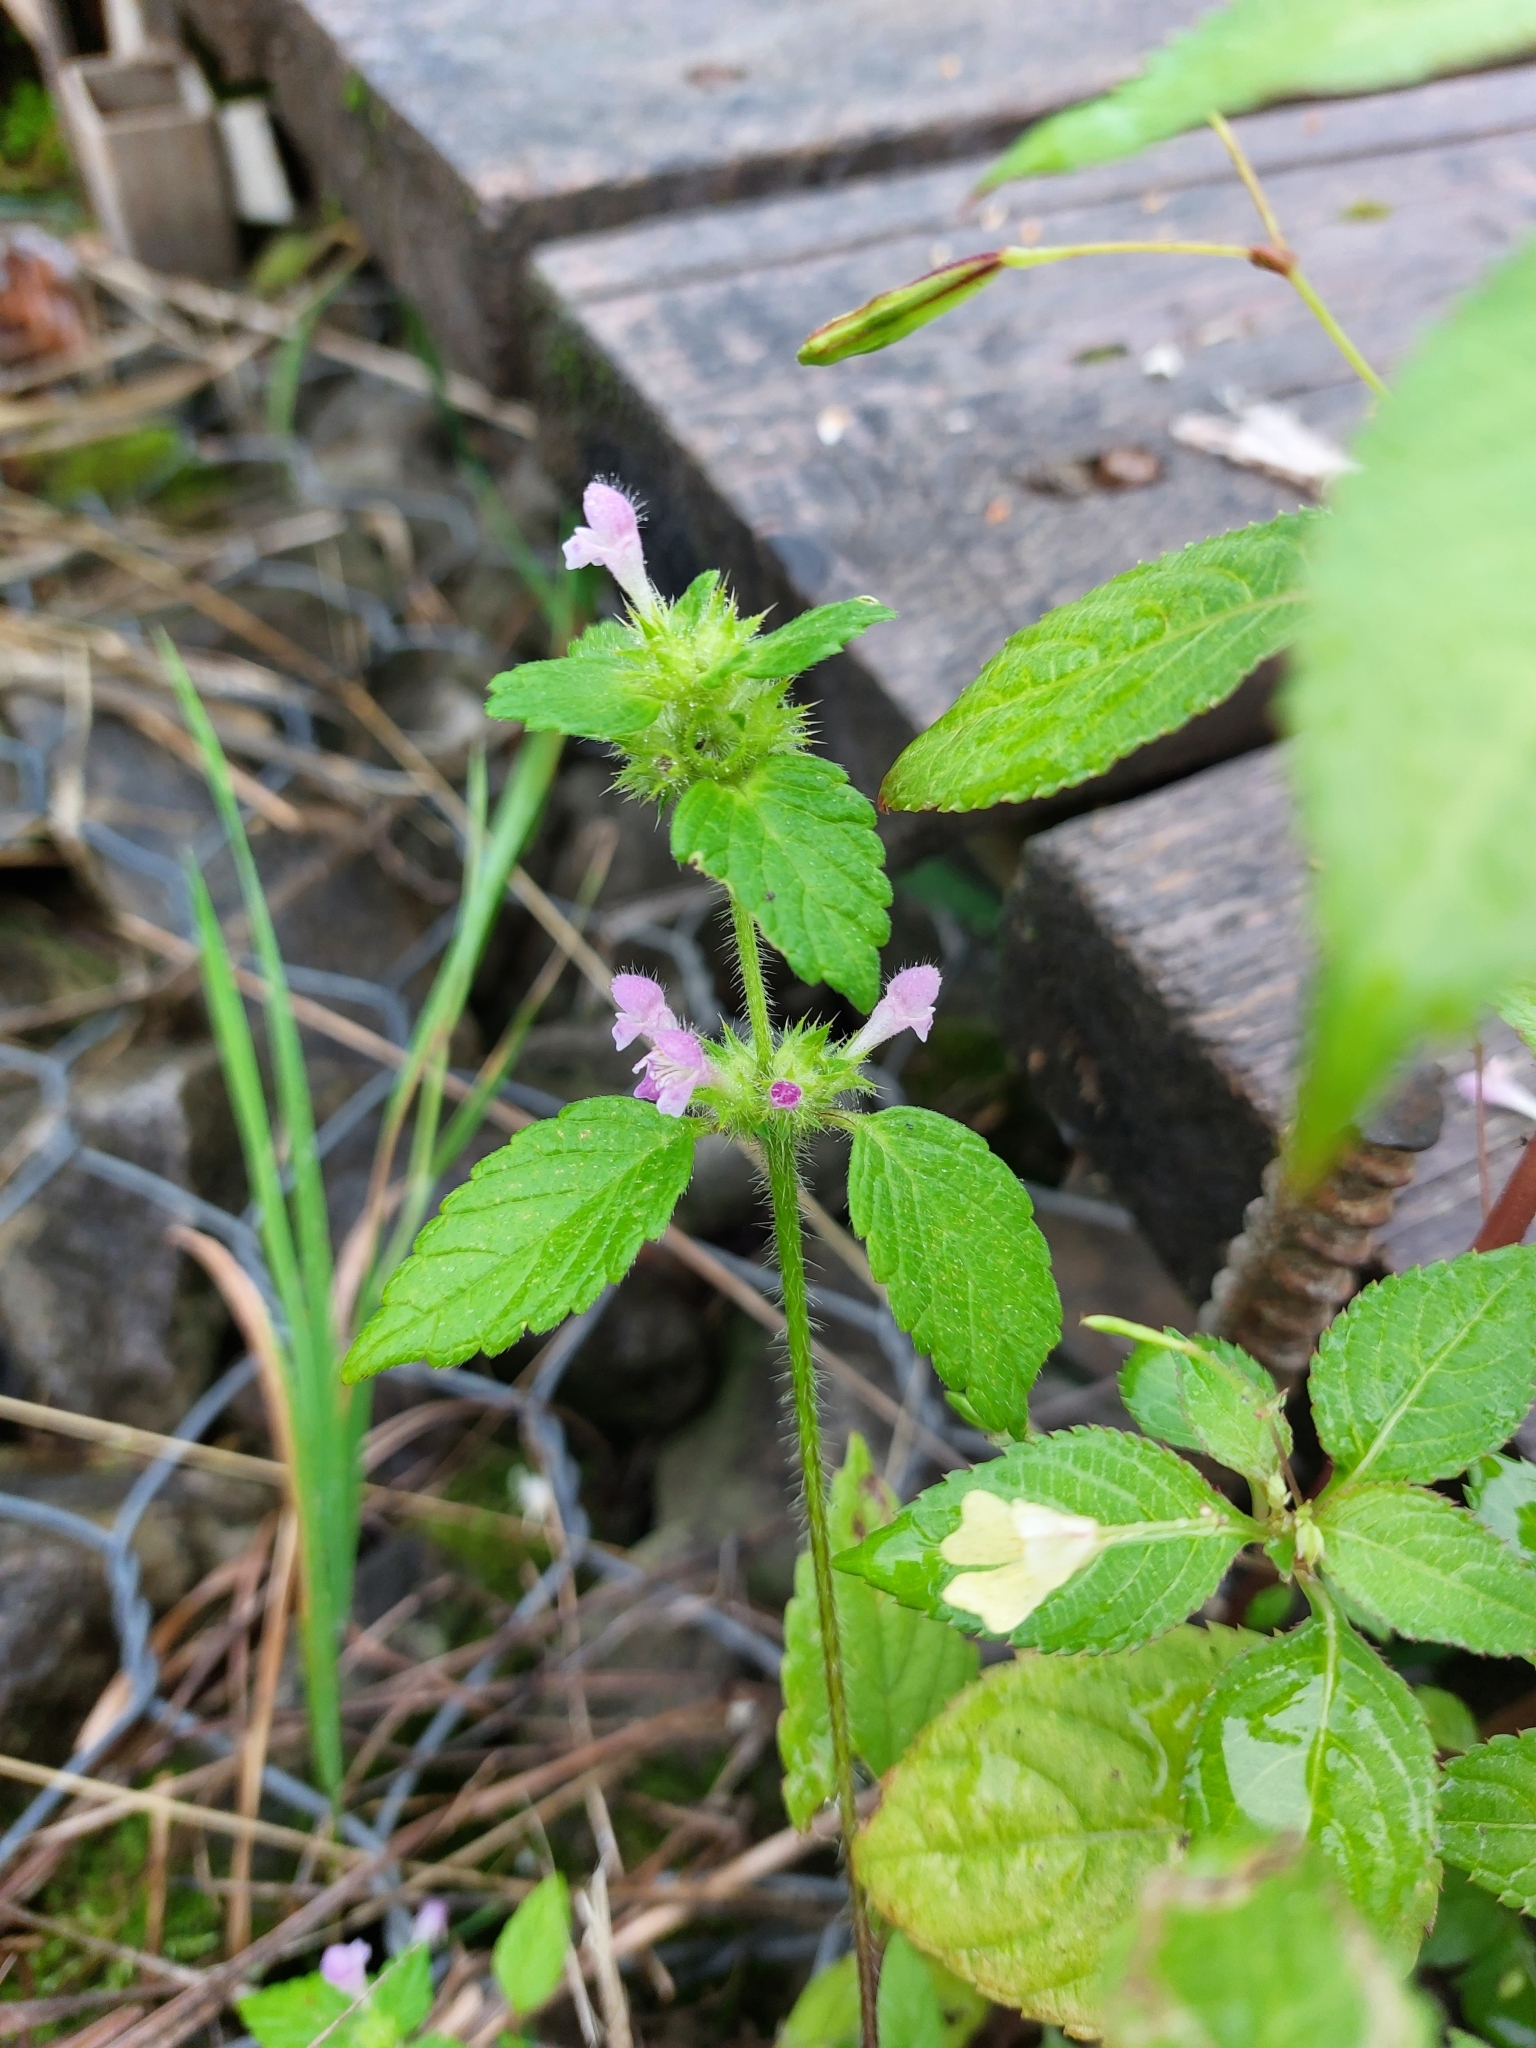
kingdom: Plantae
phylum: Tracheophyta
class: Magnoliopsida
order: Lamiales
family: Lamiaceae
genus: Galeopsis
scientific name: Galeopsis bifida
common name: Bifid hemp-nettle
